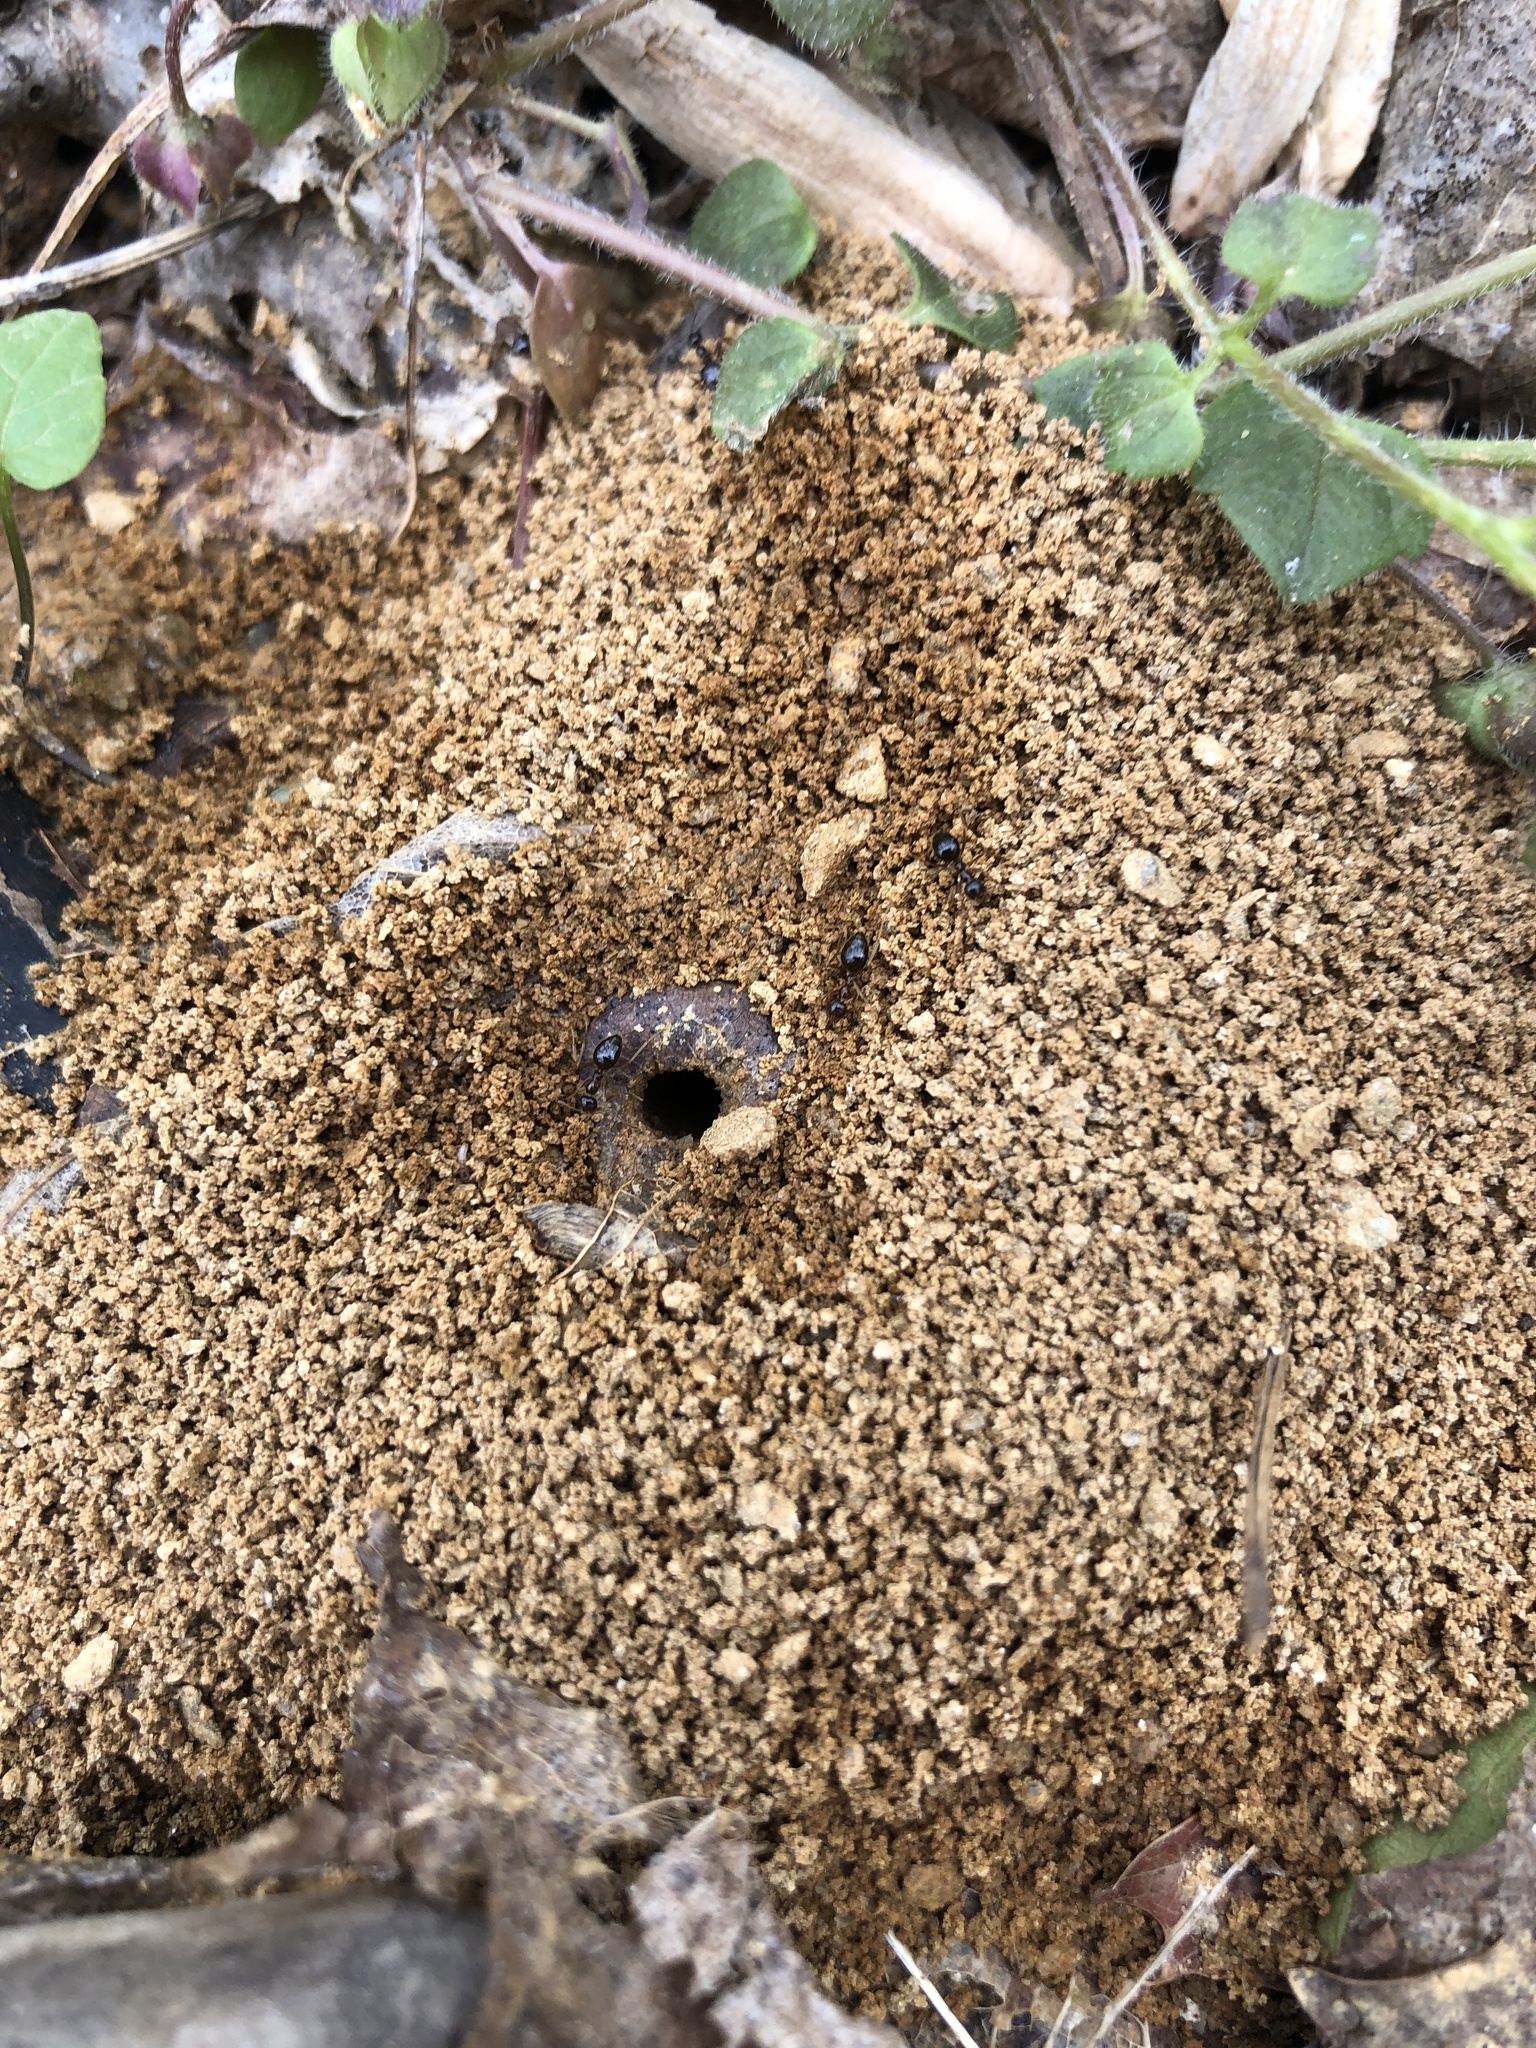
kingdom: Animalia
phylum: Arthropoda
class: Insecta
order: Hymenoptera
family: Formicidae
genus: Prenolepis
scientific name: Prenolepis imparis
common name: Small honey ant
